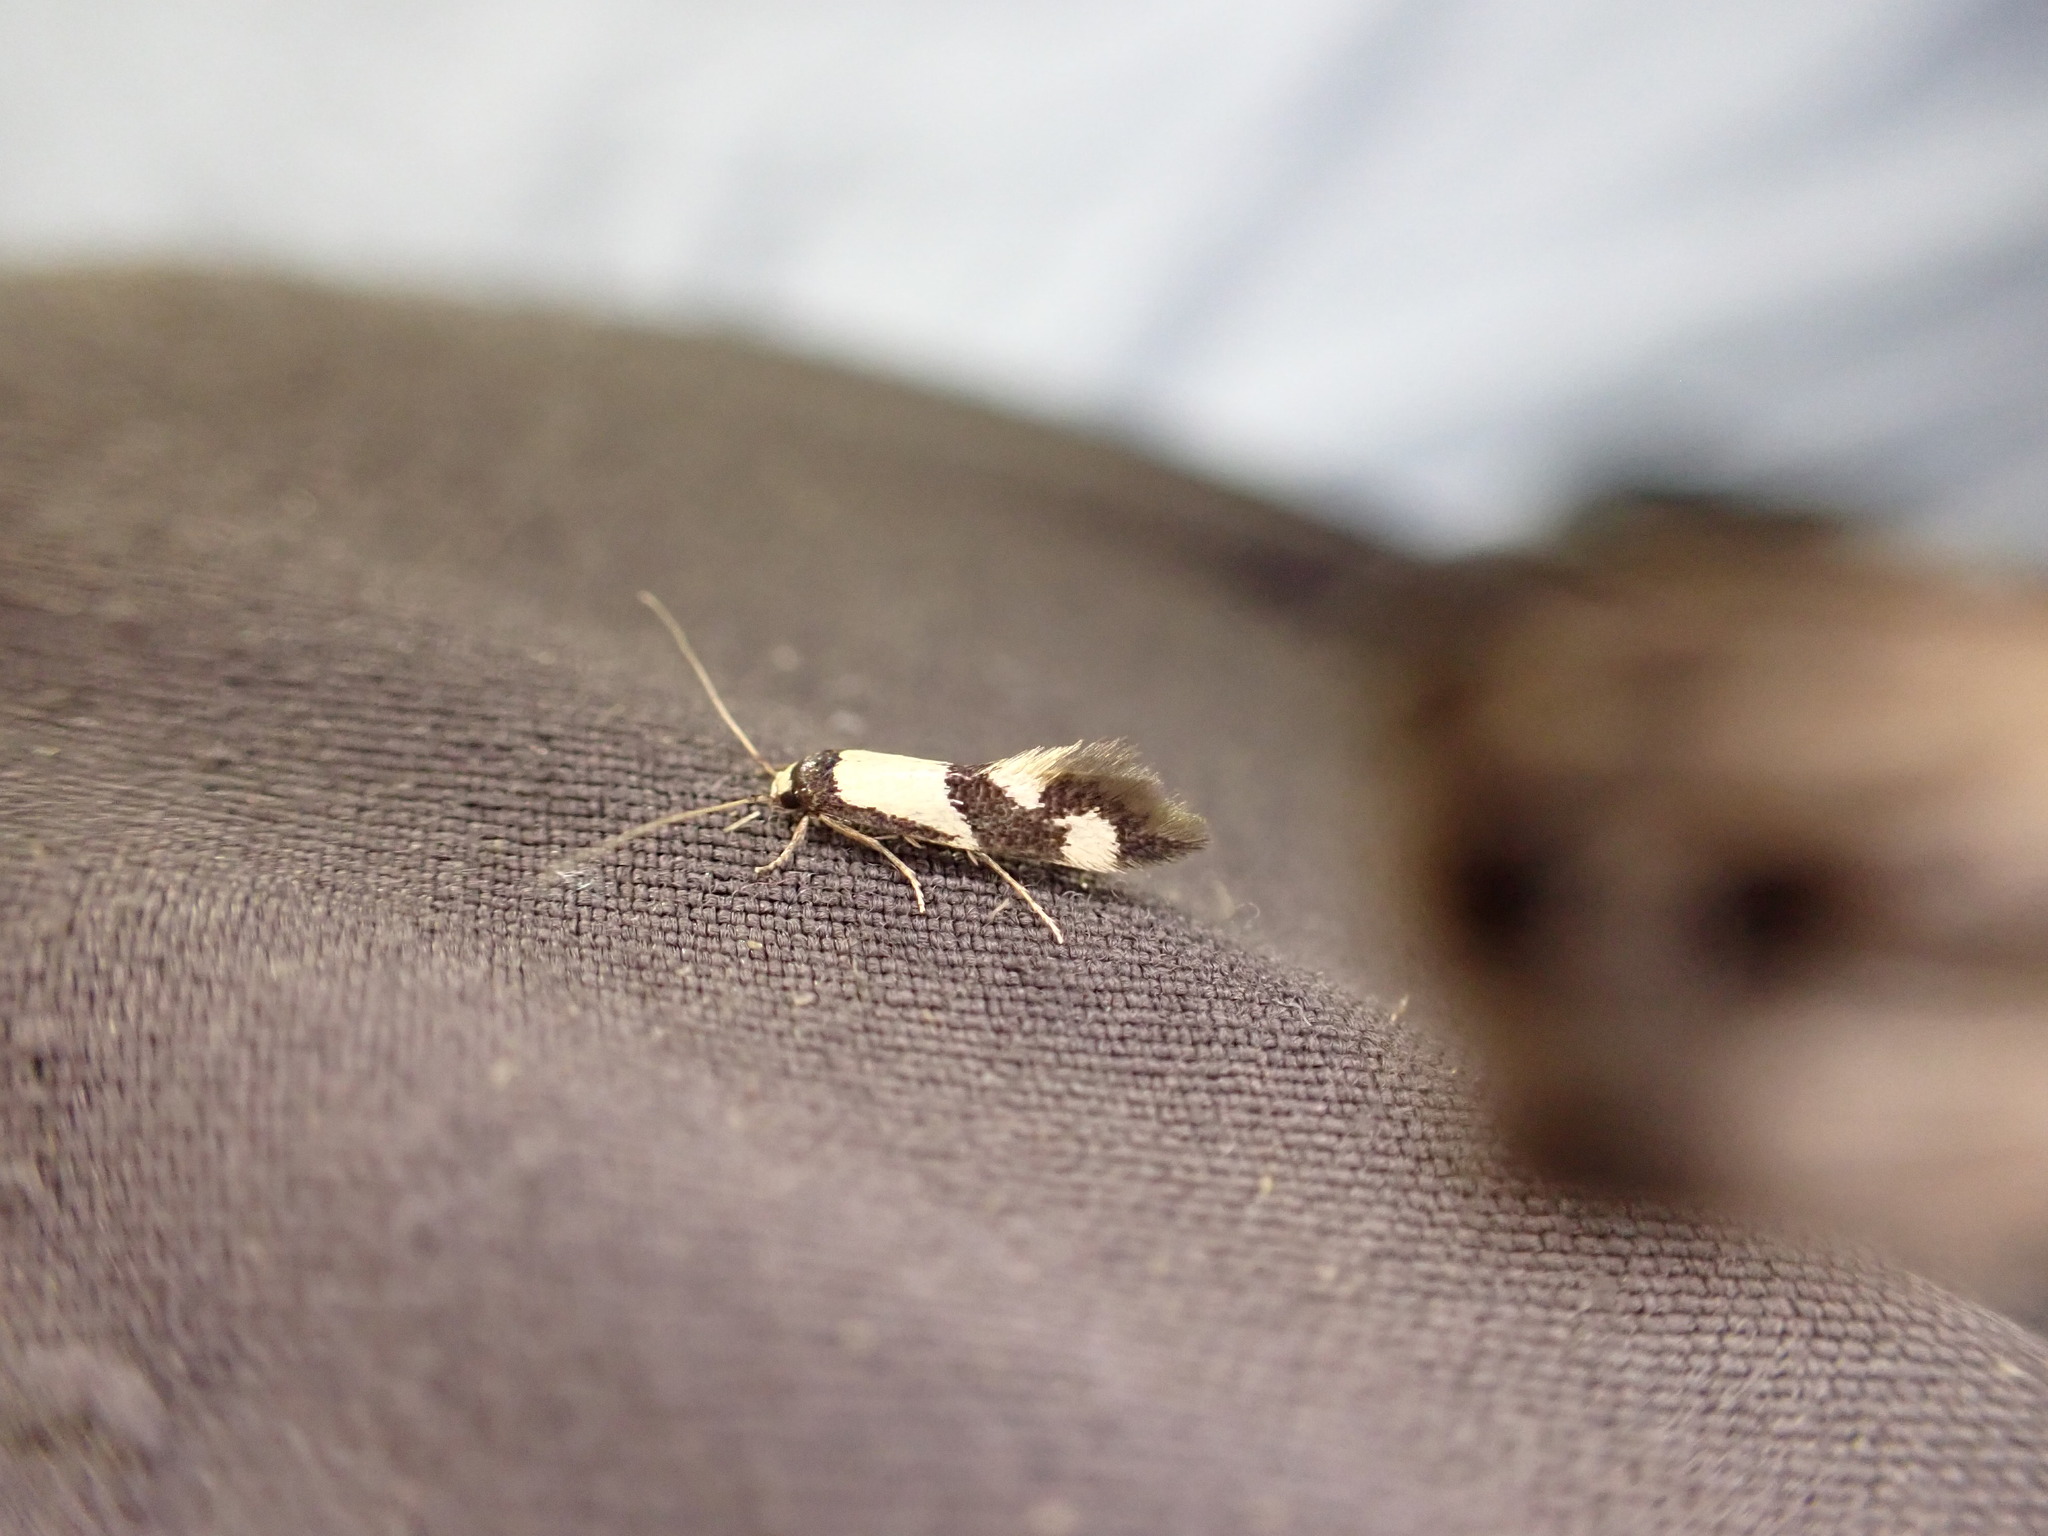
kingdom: Animalia
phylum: Arthropoda
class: Insecta
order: Lepidoptera
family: Tineidae
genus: Opogona
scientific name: Opogona comptella
